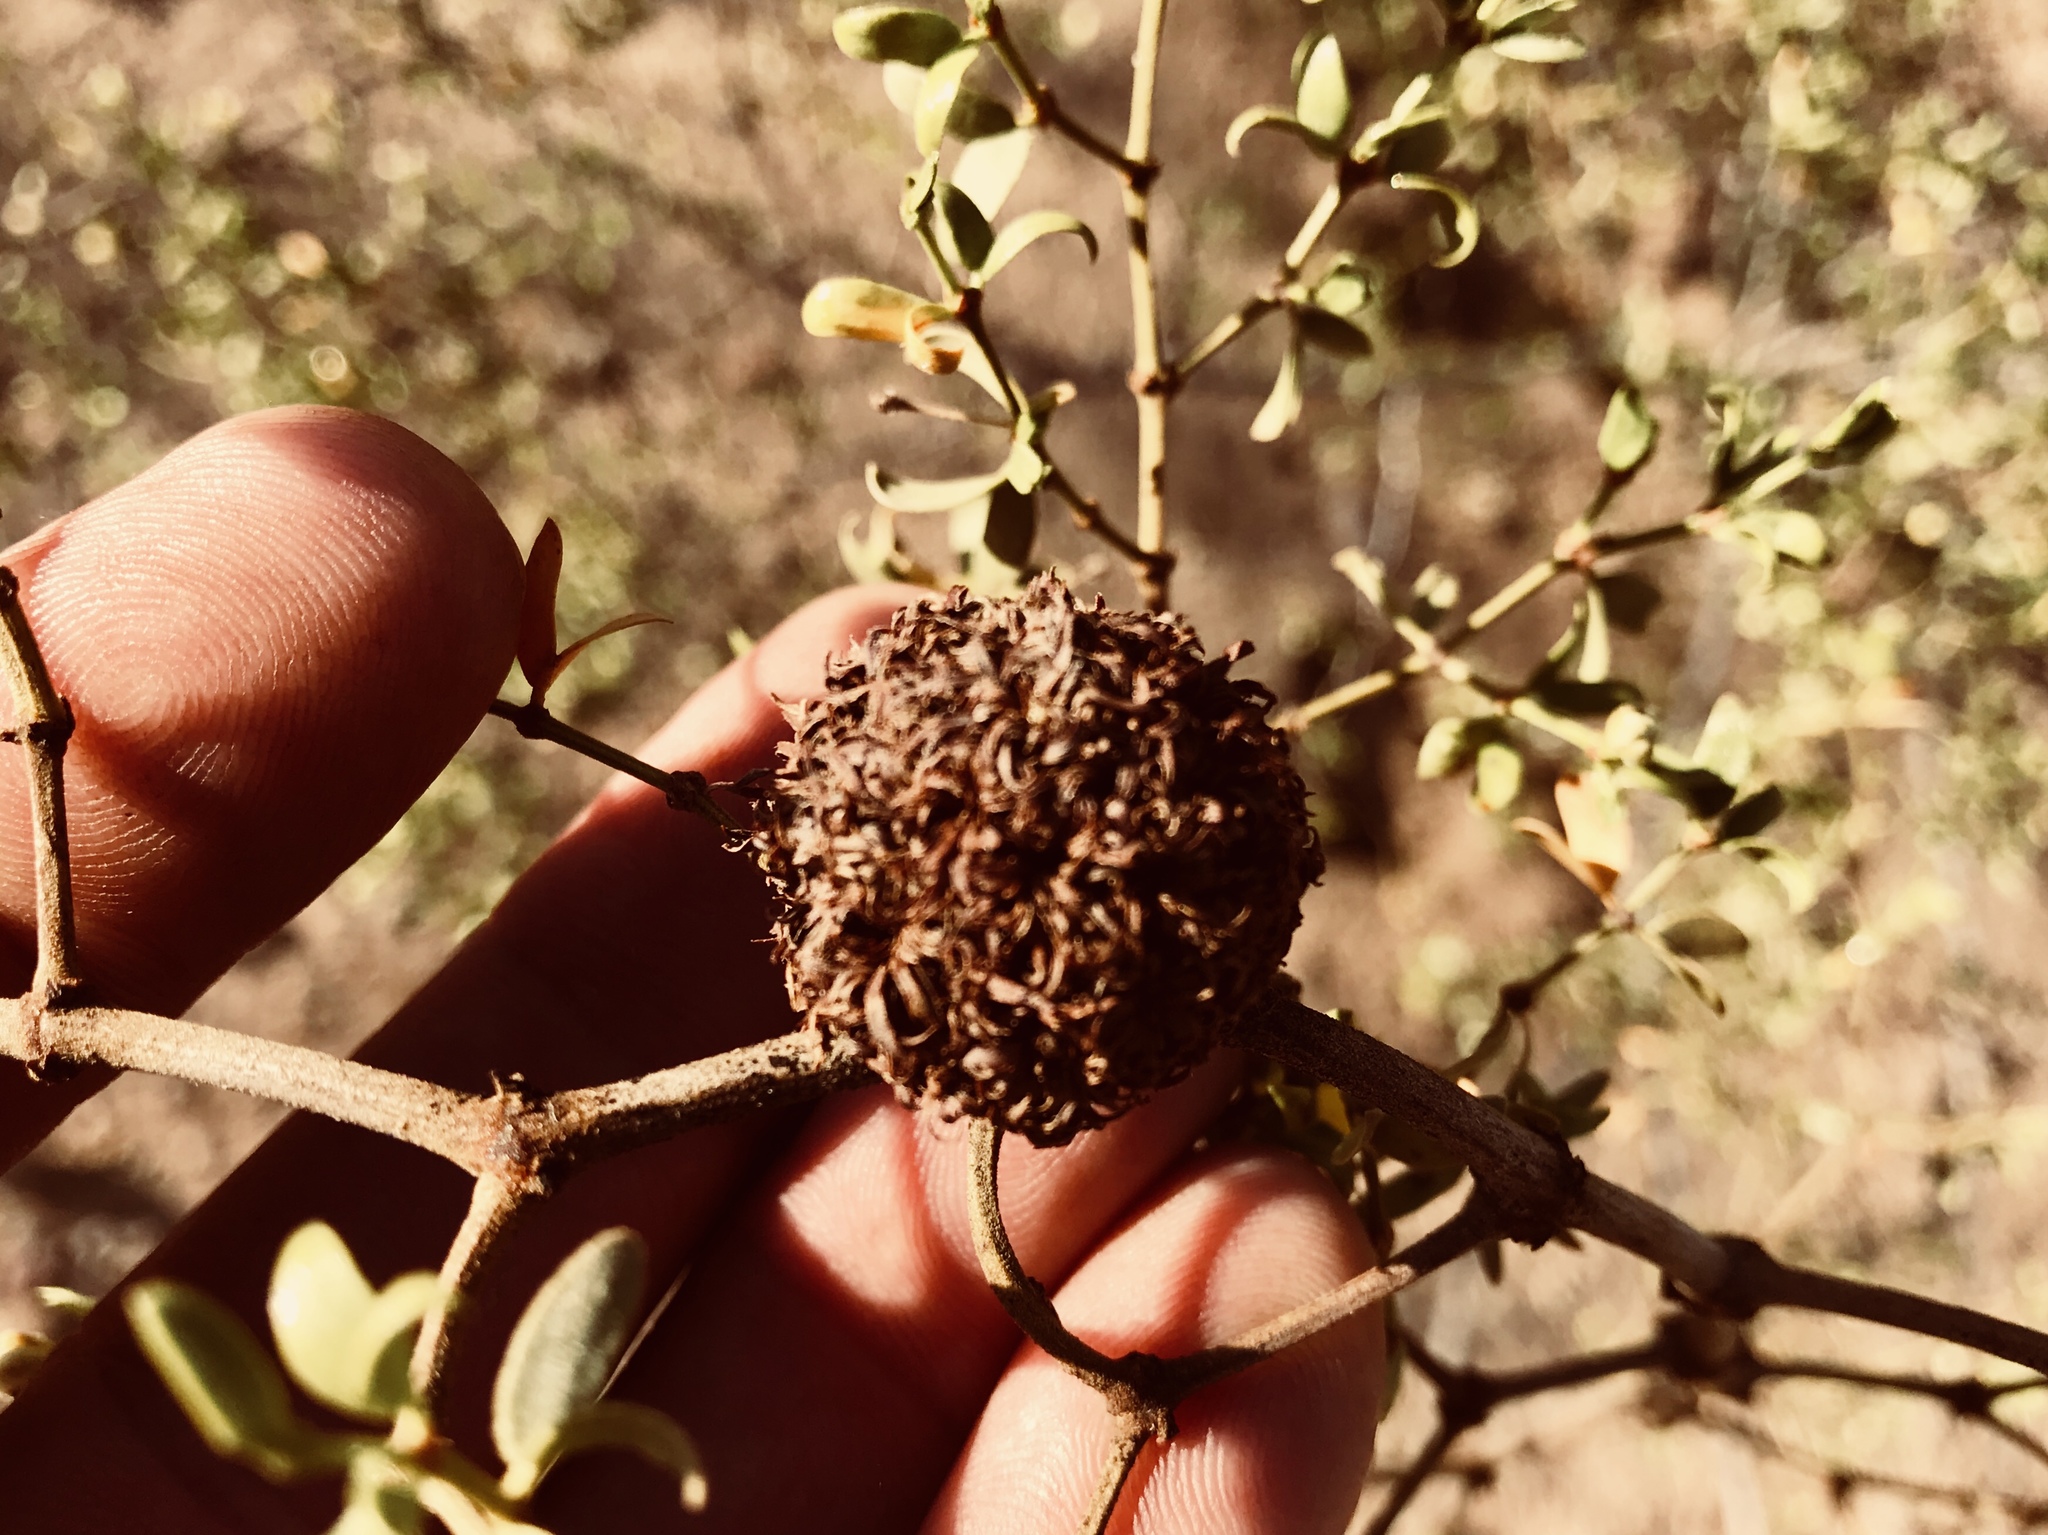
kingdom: Animalia
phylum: Arthropoda
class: Insecta
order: Diptera
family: Cecidomyiidae
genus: Asphondylia
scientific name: Asphondylia auripila
